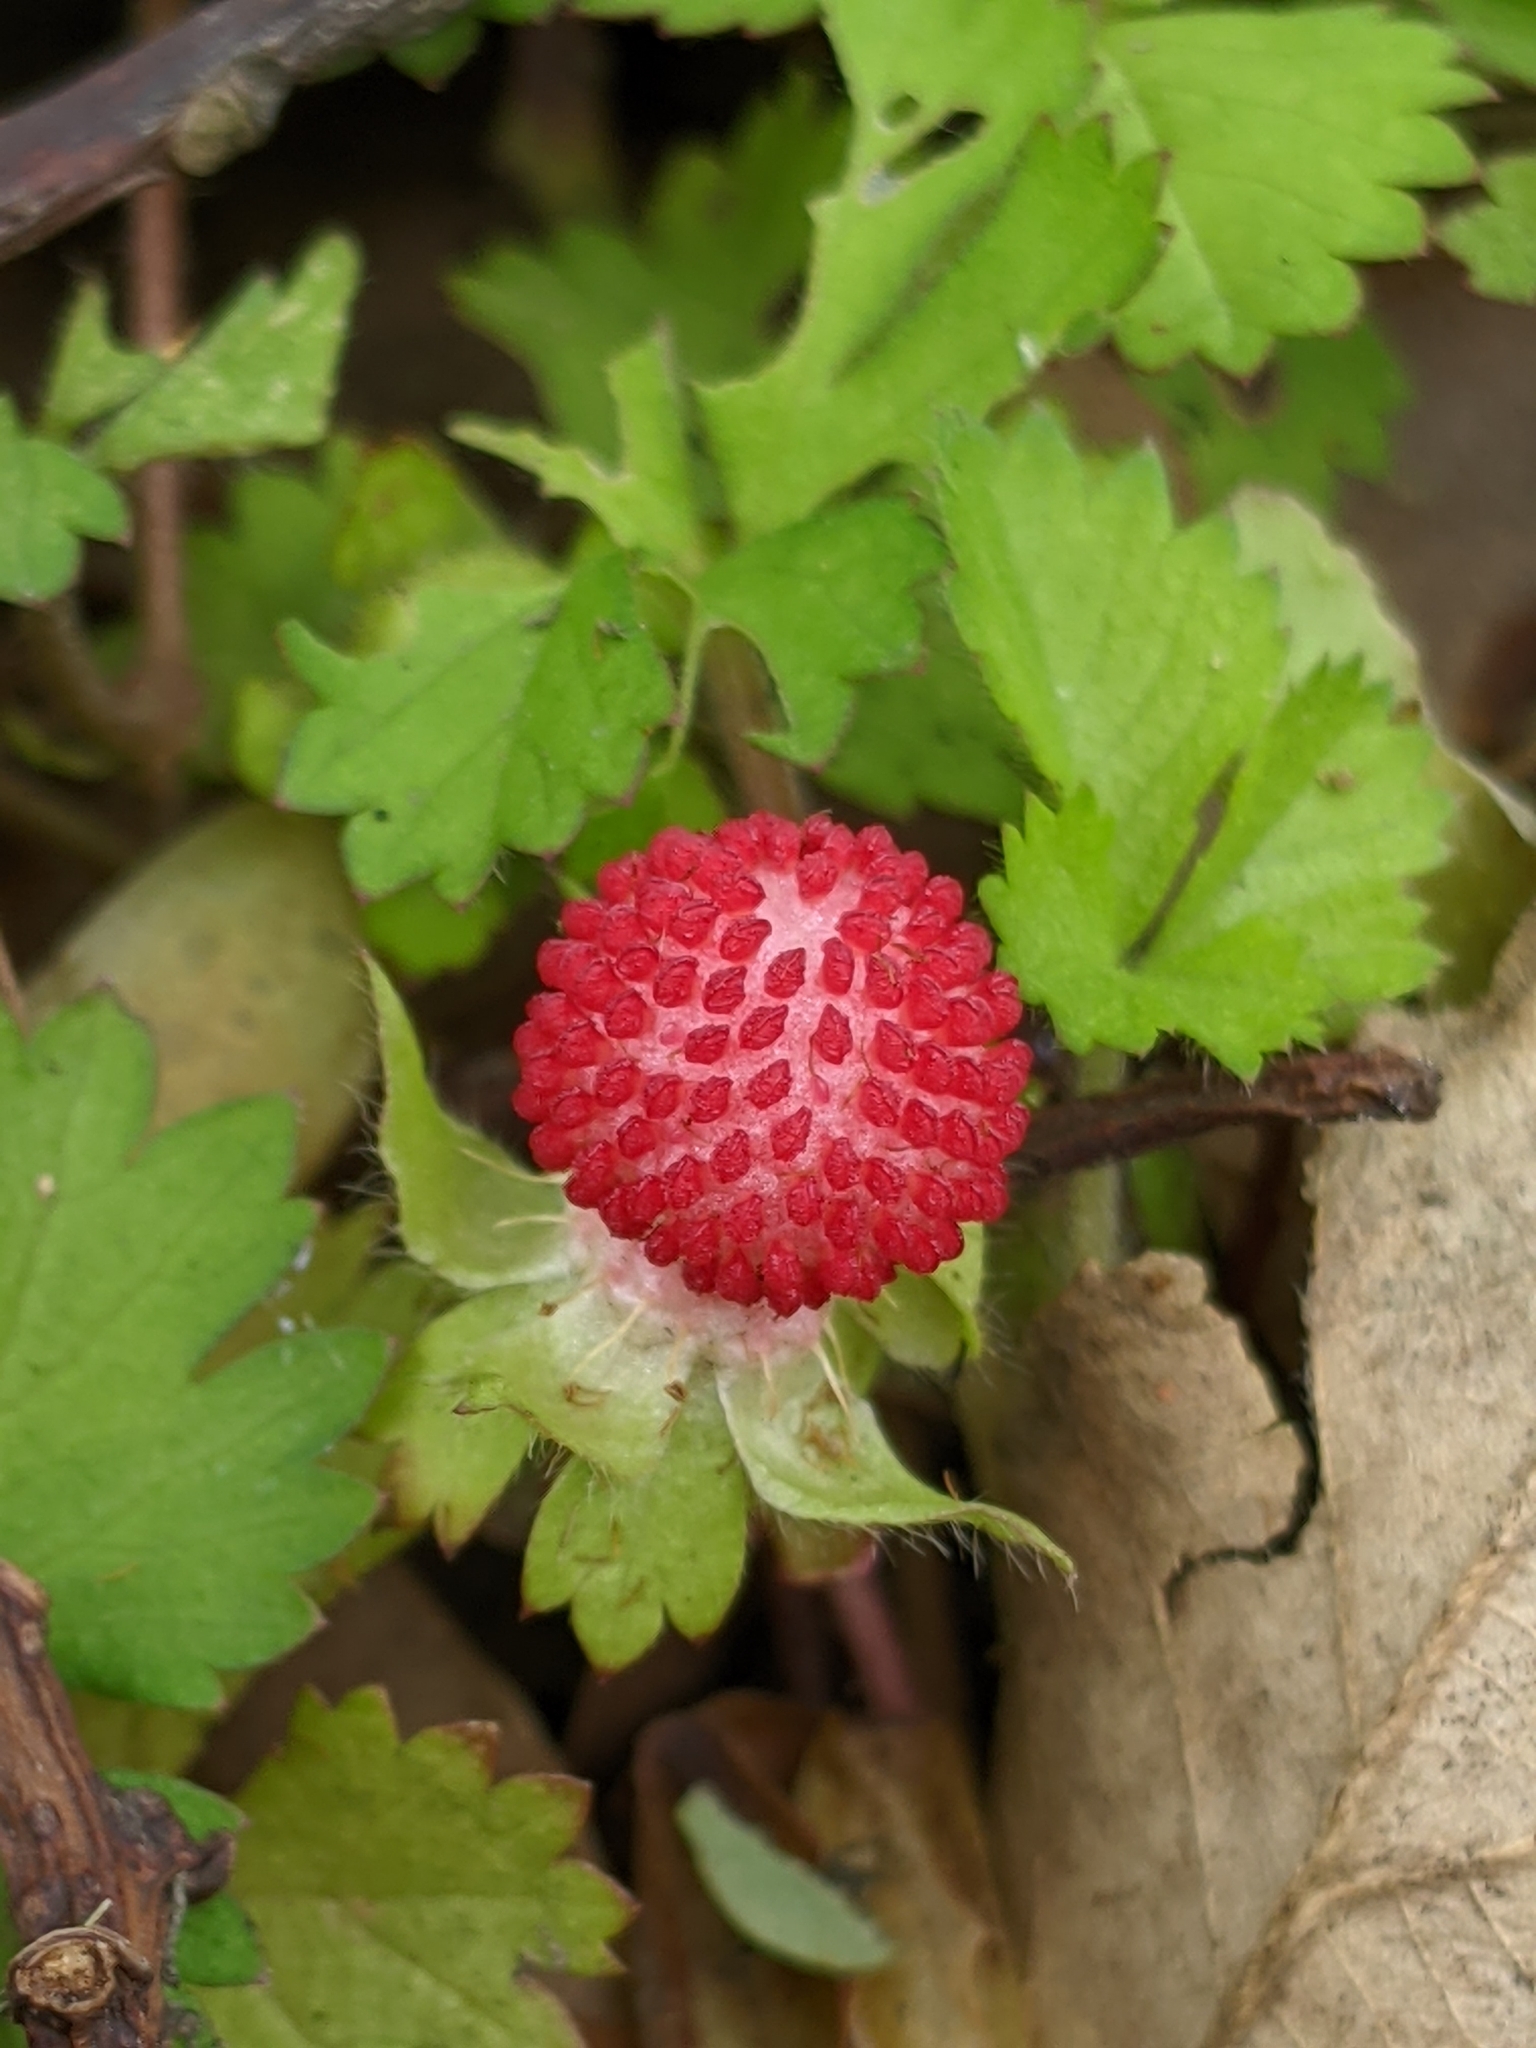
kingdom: Plantae
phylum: Tracheophyta
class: Magnoliopsida
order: Rosales
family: Rosaceae
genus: Potentilla
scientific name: Potentilla wallichiana
